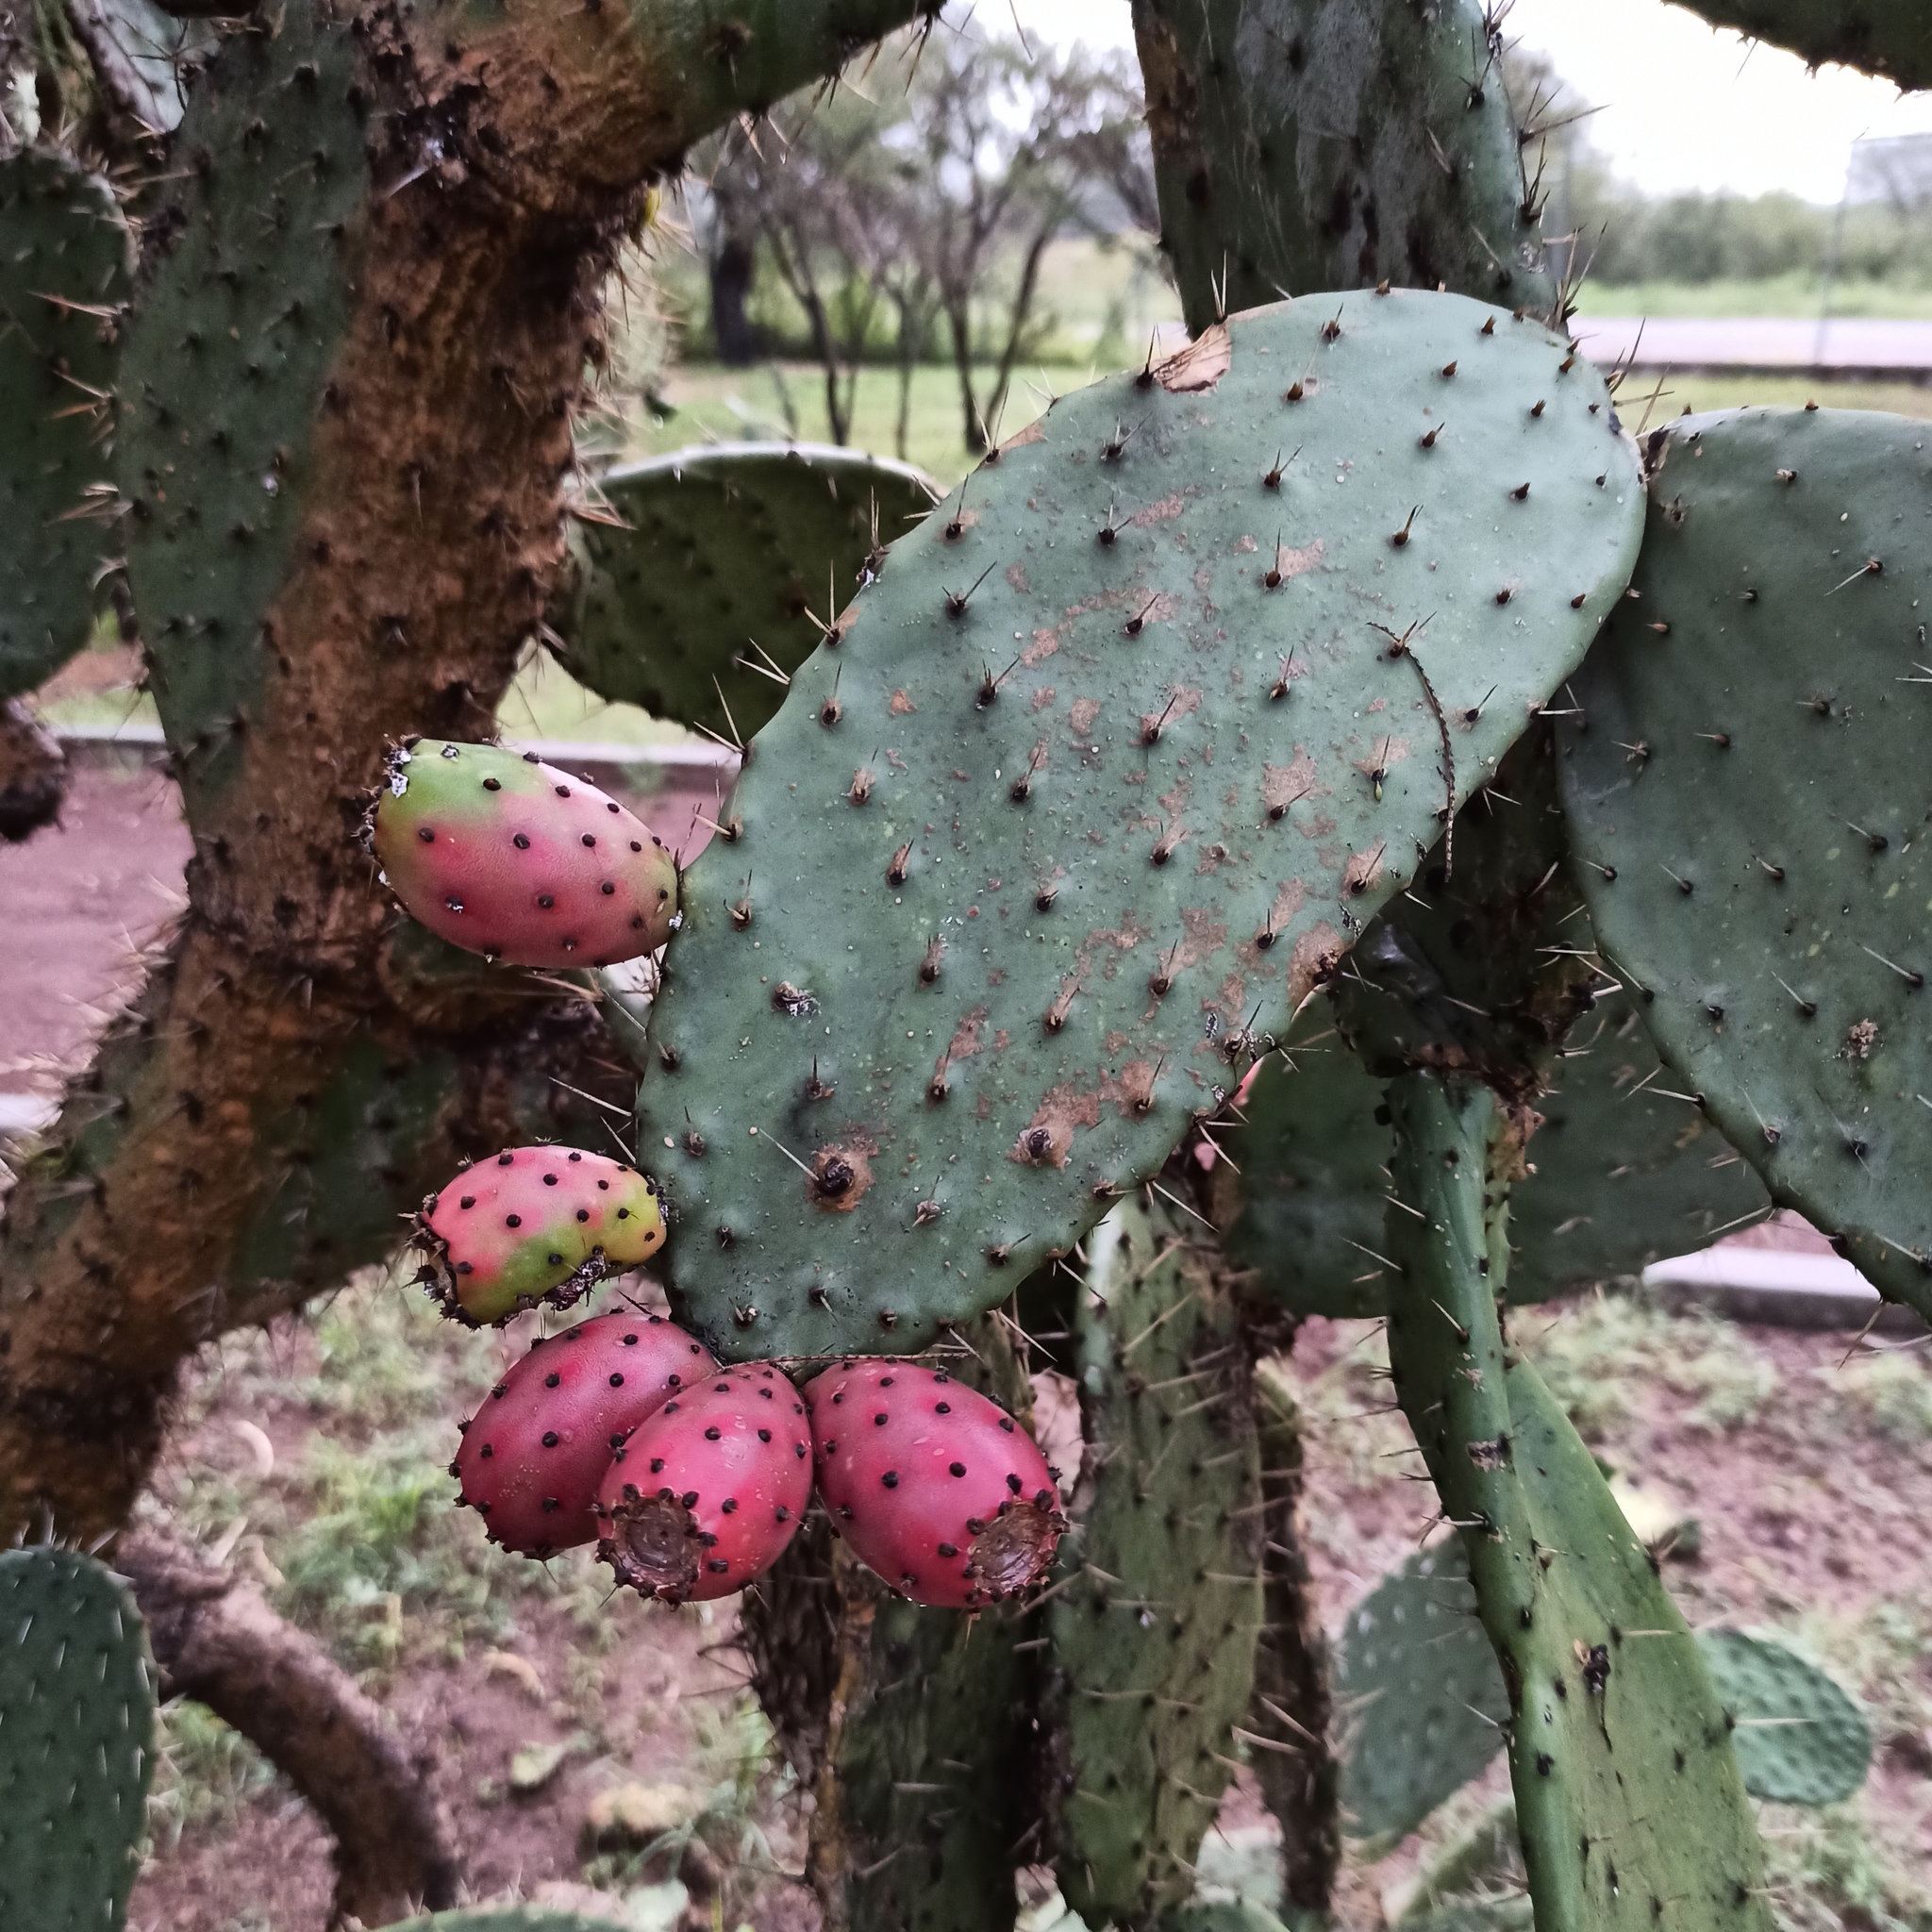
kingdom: Plantae
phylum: Tracheophyta
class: Magnoliopsida
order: Caryophyllales
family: Cactaceae
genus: Opuntia
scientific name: Opuntia tomentosa
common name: Woollyjoint pricklypear
